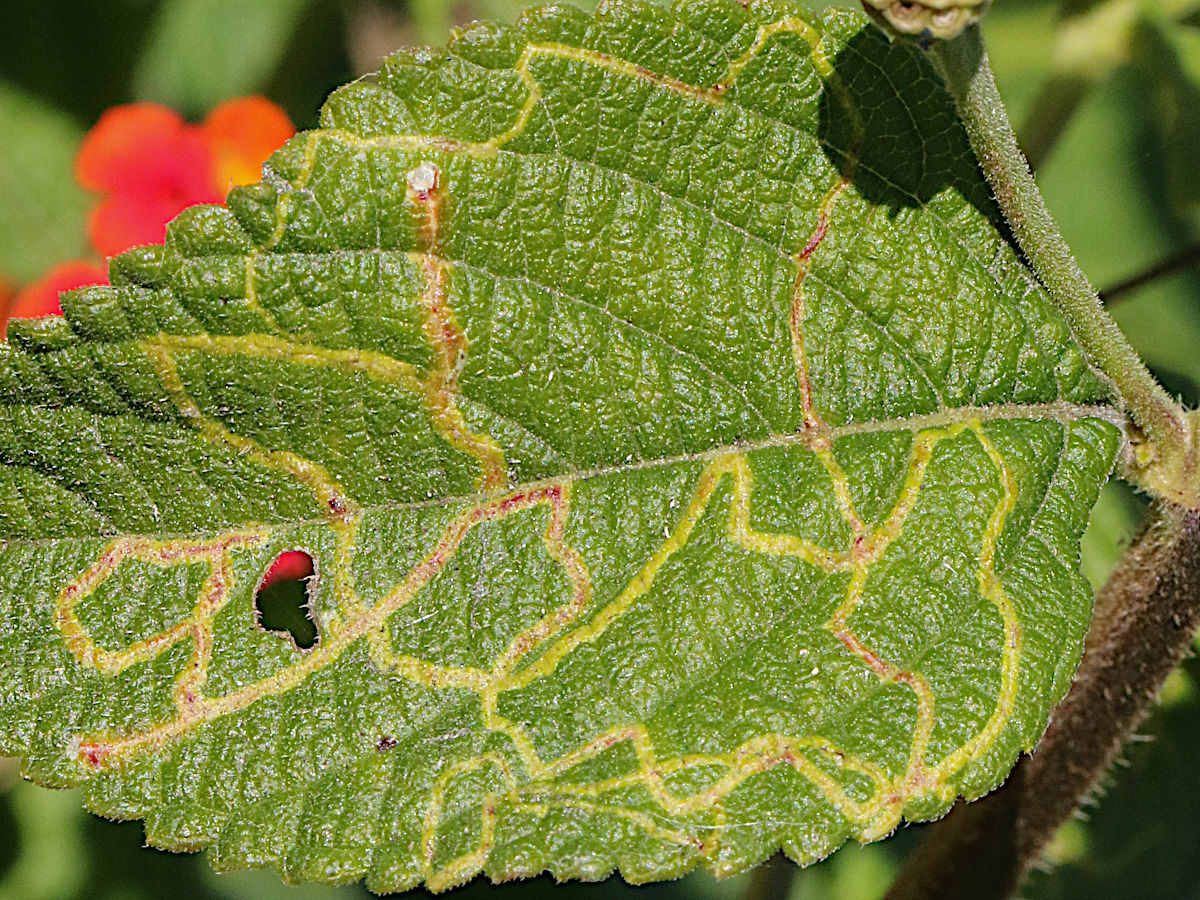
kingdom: Animalia
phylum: Arthropoda
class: Insecta
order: Diptera
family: Agromyzidae
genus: Ophiomyia
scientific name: Ophiomyia camarae
